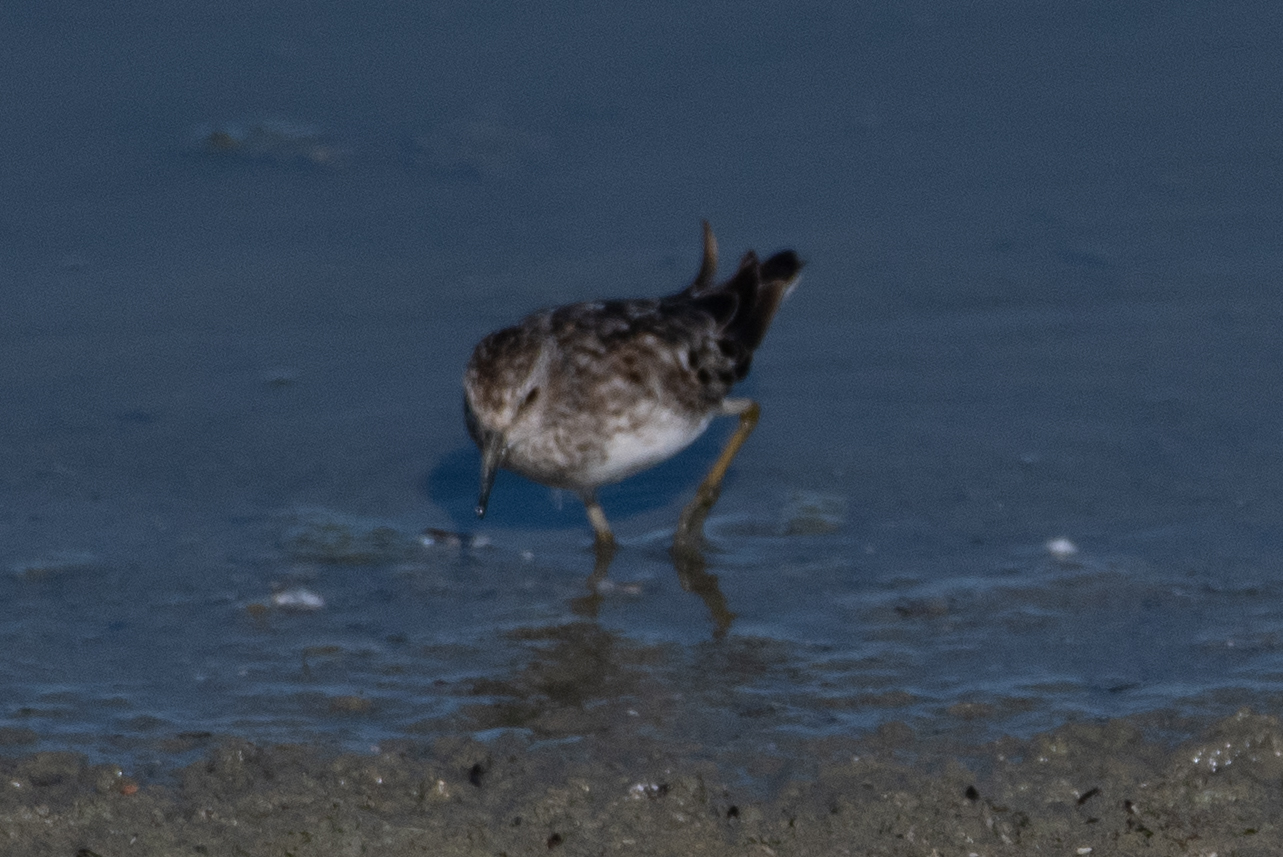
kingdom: Animalia
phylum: Chordata
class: Aves
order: Charadriiformes
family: Scolopacidae
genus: Calidris
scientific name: Calidris minutilla
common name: Least sandpiper
